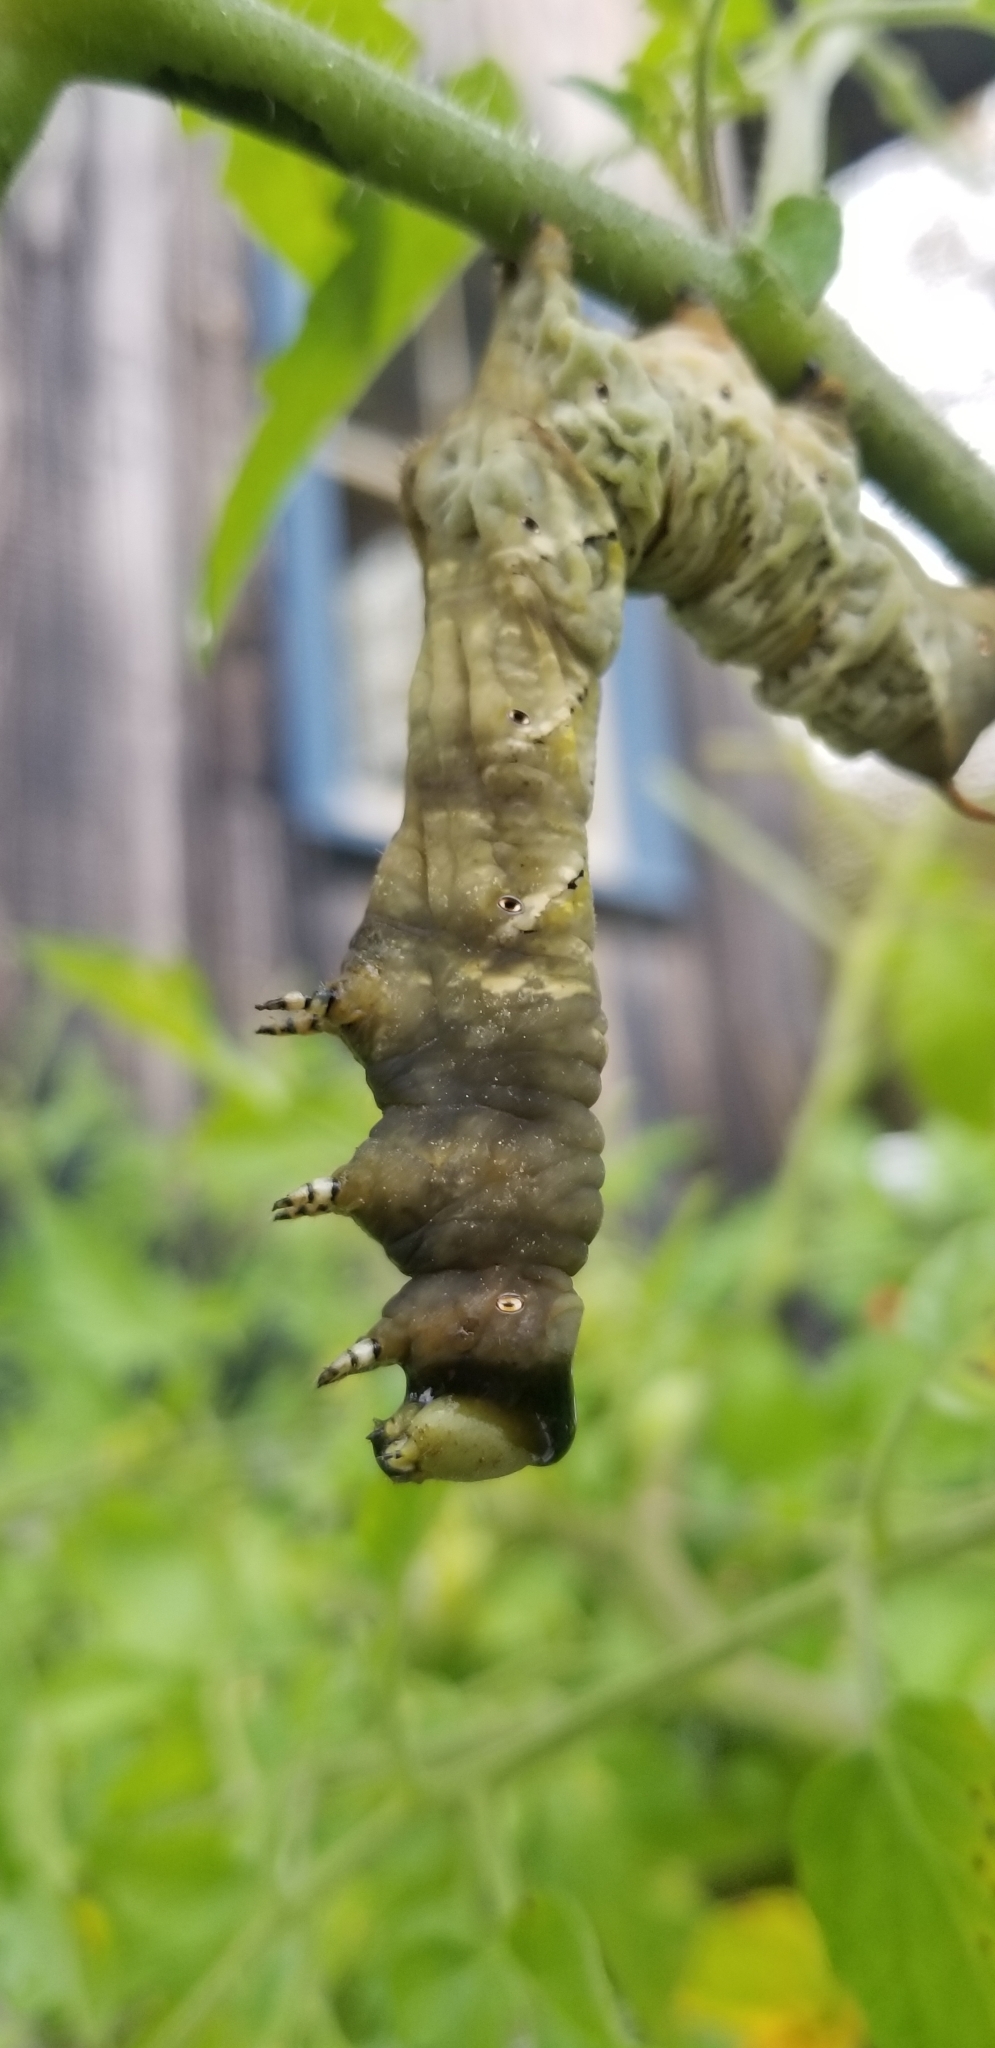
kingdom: Animalia
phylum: Arthropoda
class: Insecta
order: Lepidoptera
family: Sphingidae
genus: Manduca
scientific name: Manduca sexta
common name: Carolina sphinx
